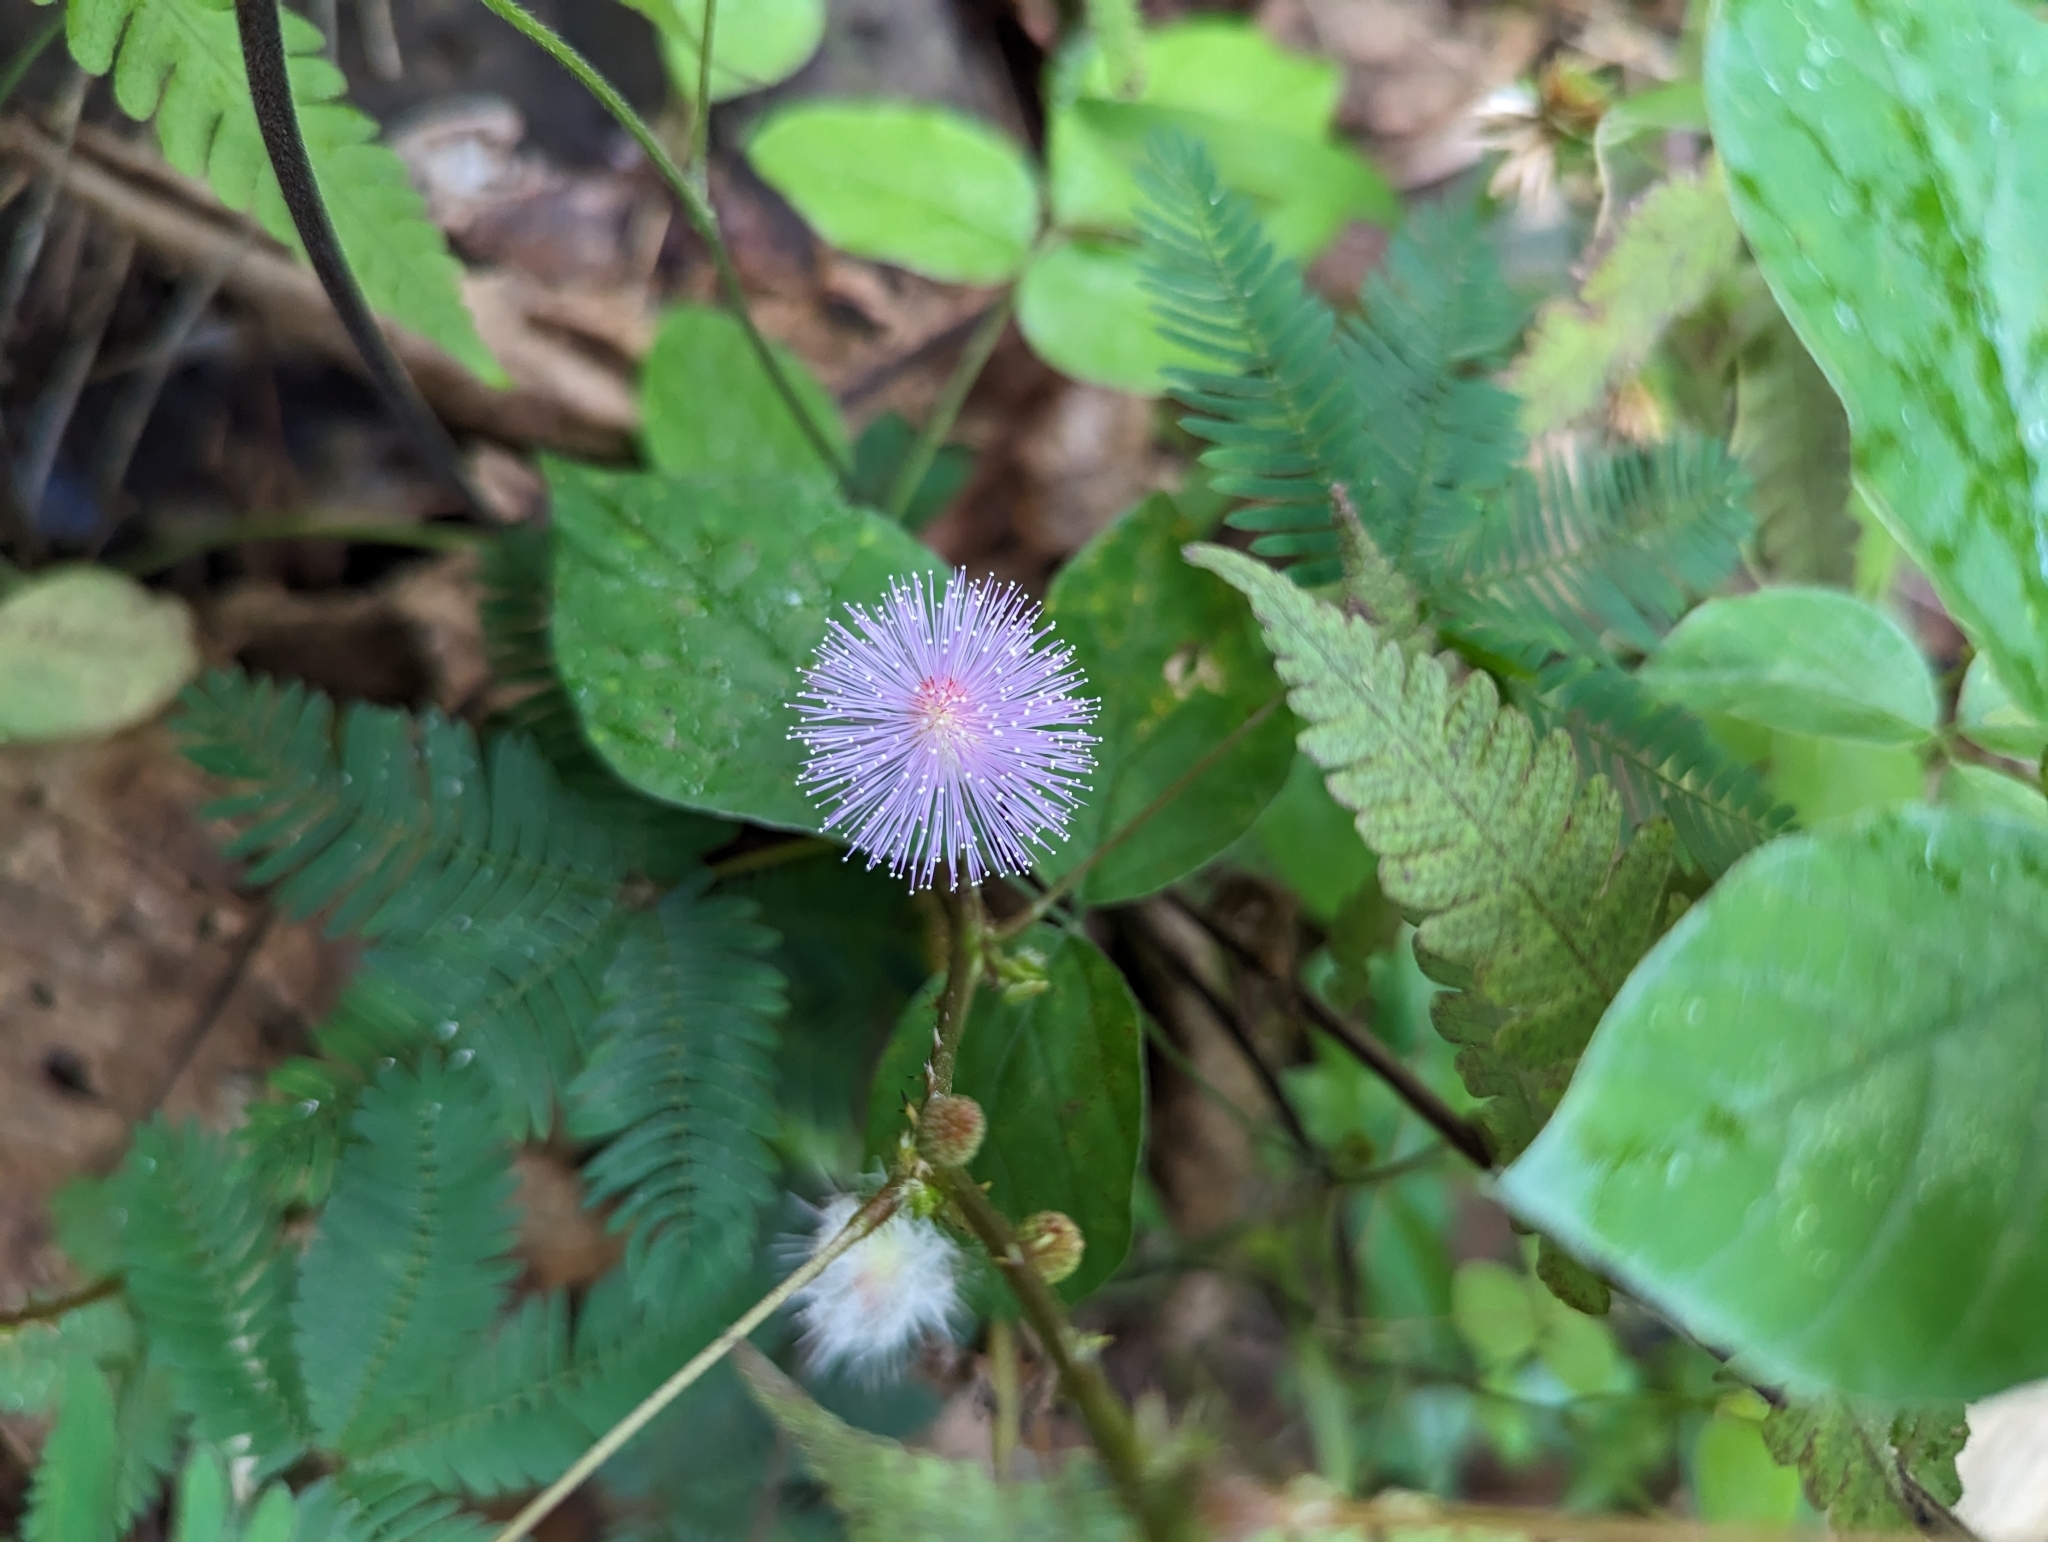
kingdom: Plantae
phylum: Tracheophyta
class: Magnoliopsida
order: Fabales
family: Fabaceae
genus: Mimosa
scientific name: Mimosa pudica
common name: Sensitive plant
